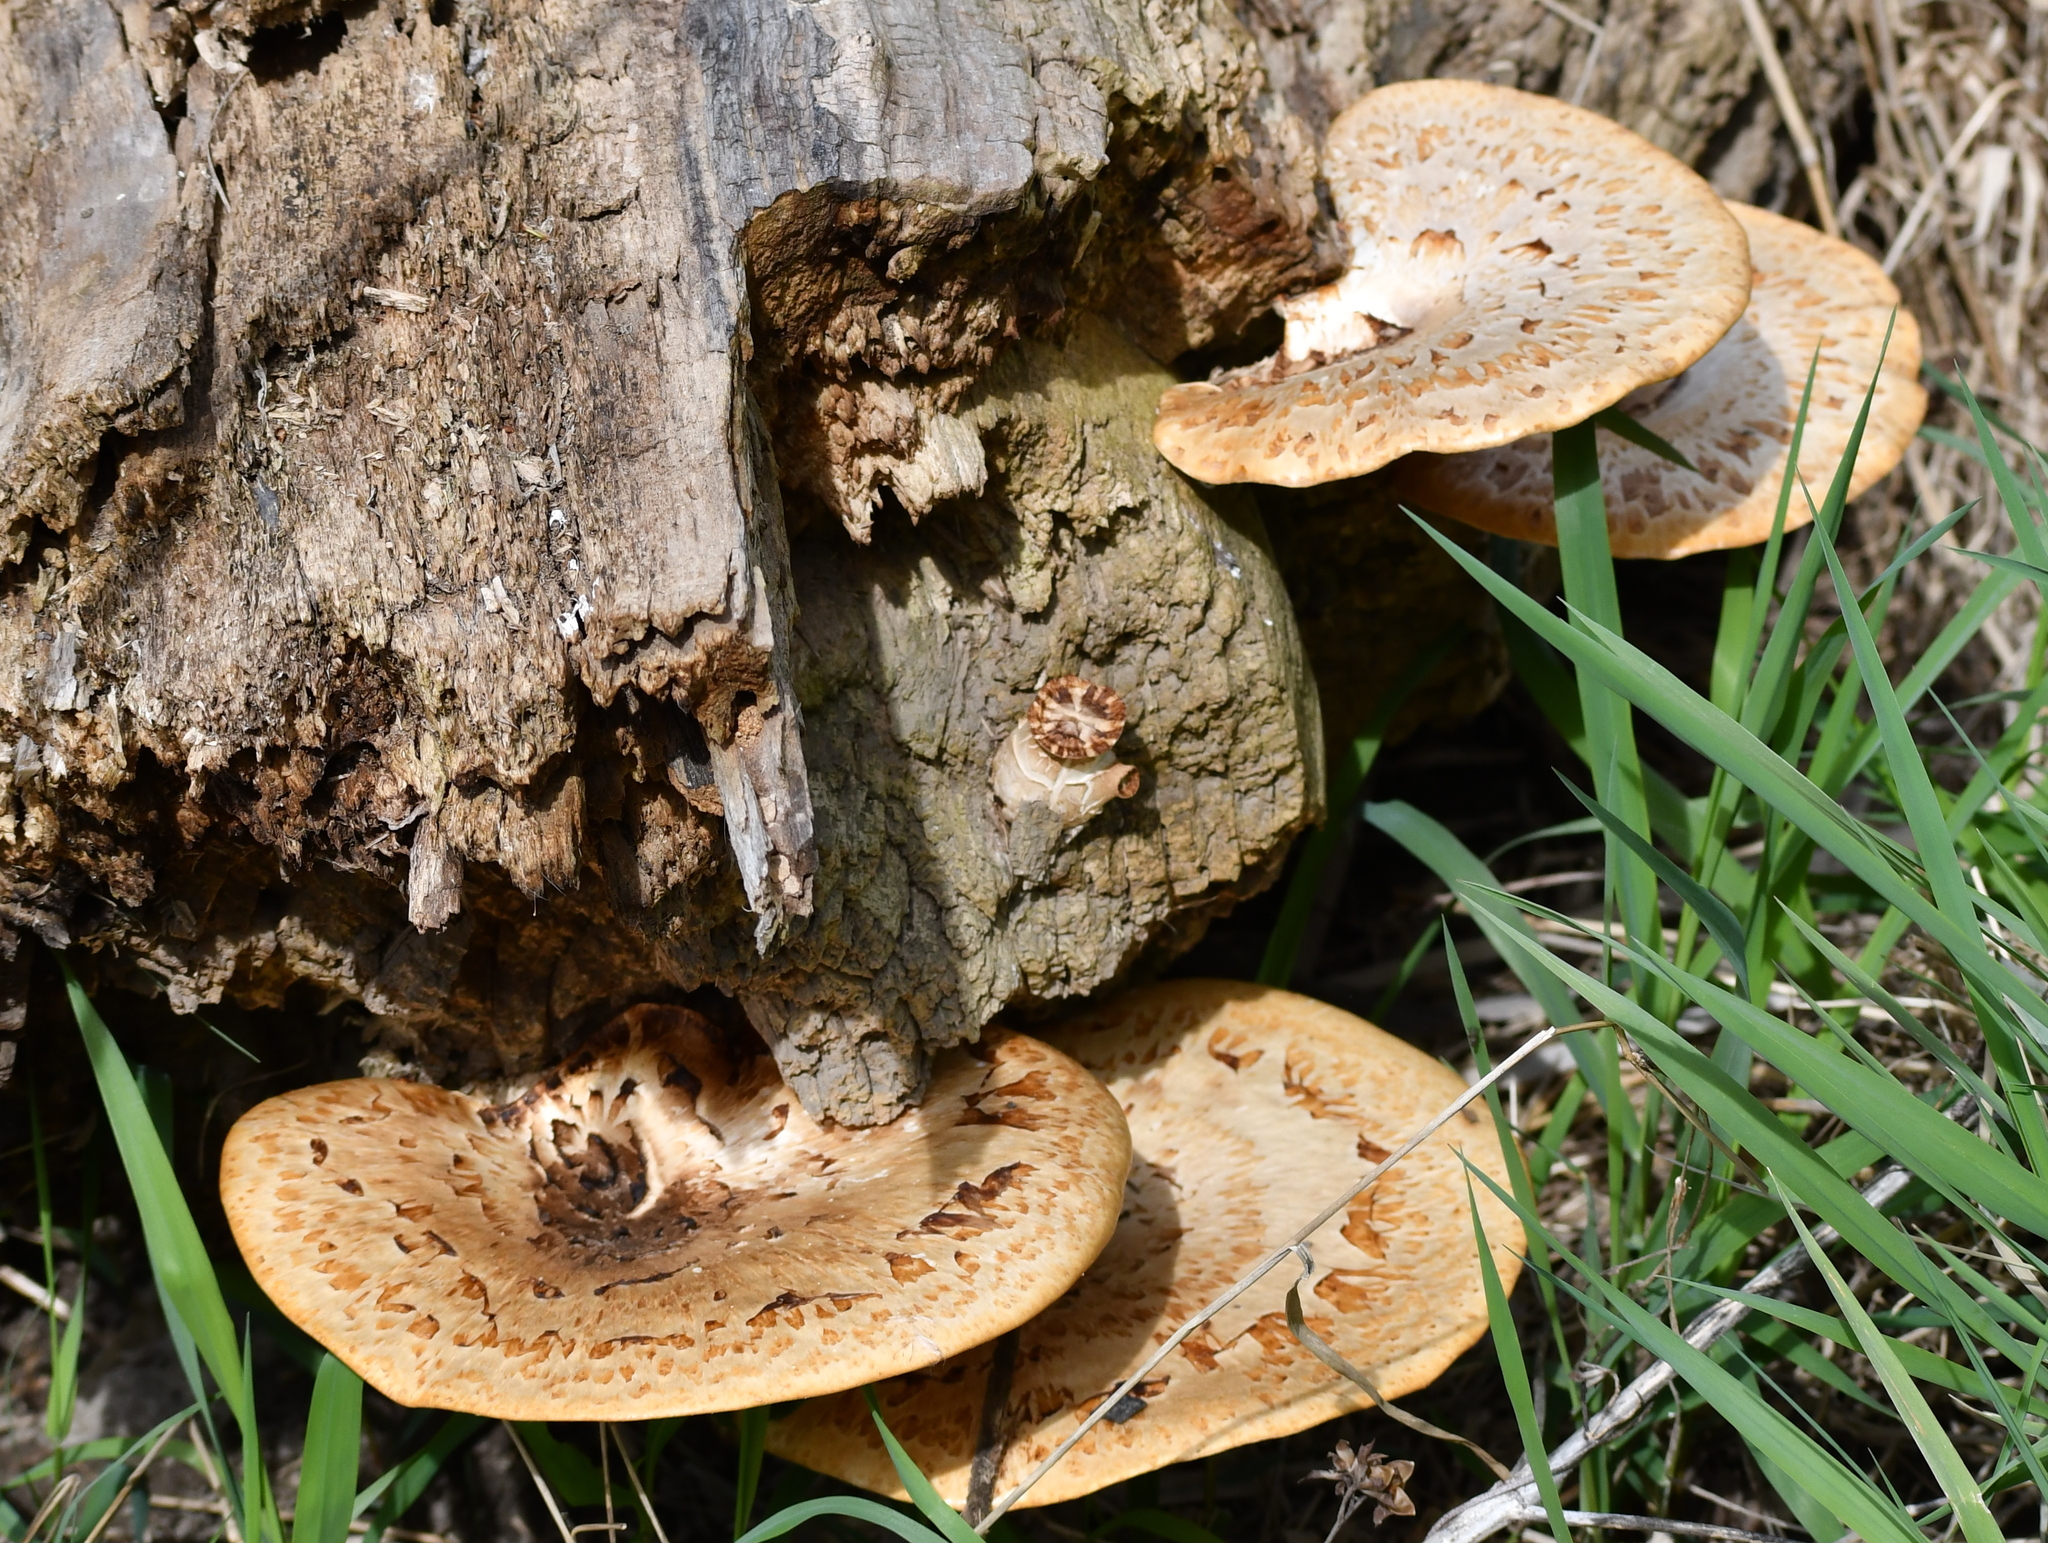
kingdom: Fungi
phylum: Basidiomycota
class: Agaricomycetes
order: Polyporales
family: Polyporaceae
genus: Cerioporus
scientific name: Cerioporus squamosus
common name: Dryad's saddle
